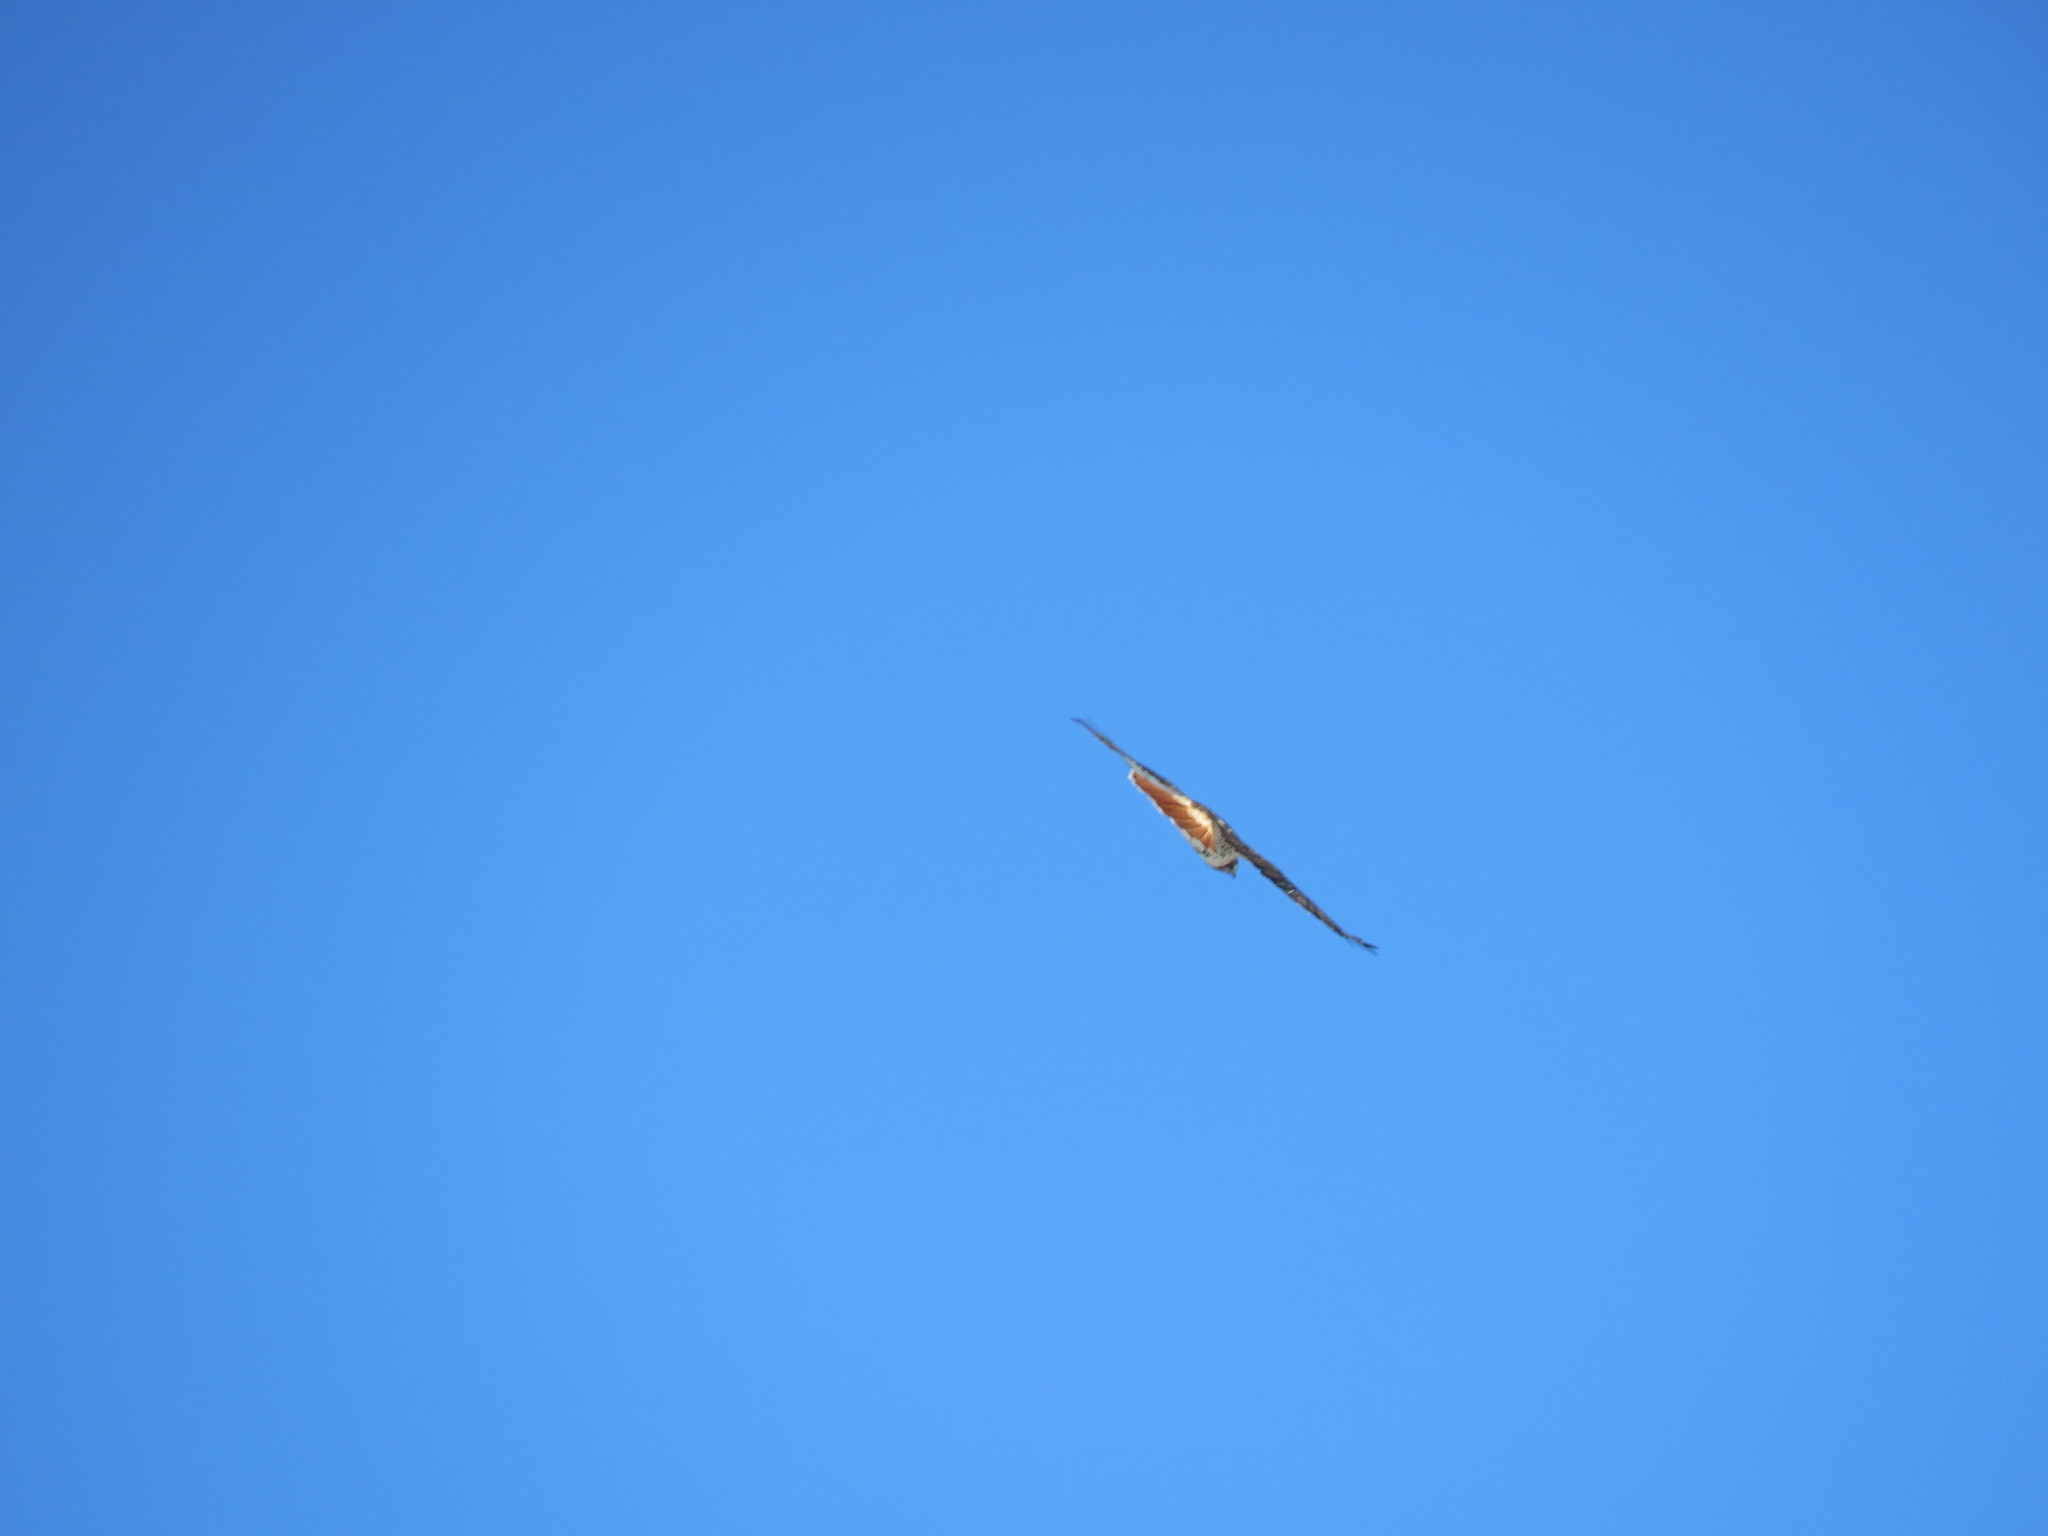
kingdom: Animalia
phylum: Chordata
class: Aves
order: Accipitriformes
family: Accipitridae
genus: Buteo
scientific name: Buteo jamaicensis
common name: Red-tailed hawk
